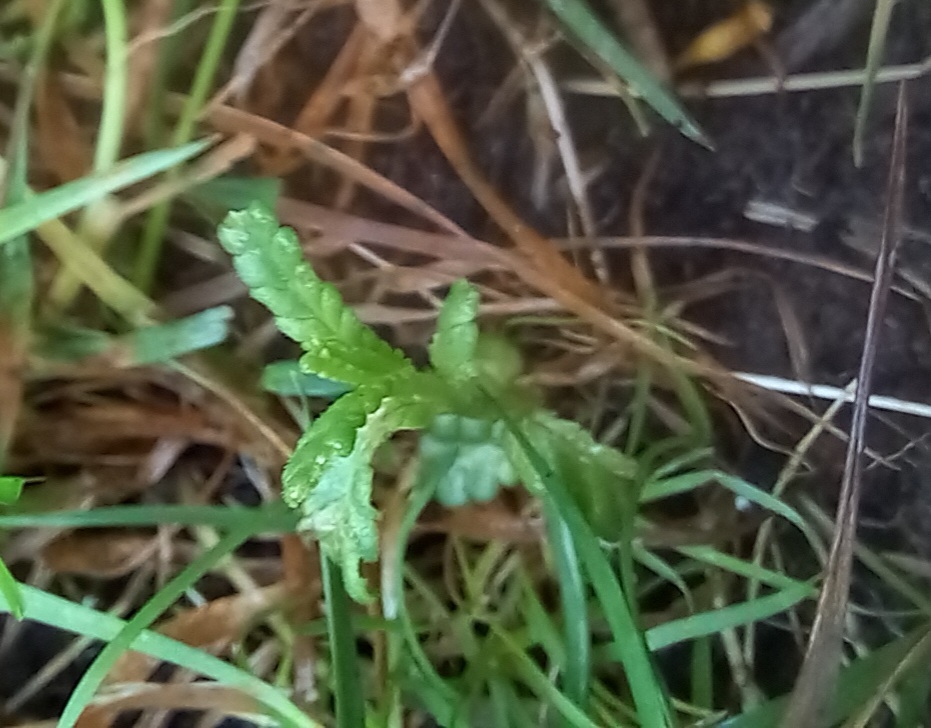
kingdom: Plantae
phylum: Tracheophyta
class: Magnoliopsida
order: Lamiales
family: Orobanchaceae
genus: Rhinanthus
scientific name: Rhinanthus minor
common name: Yellow-rattle
